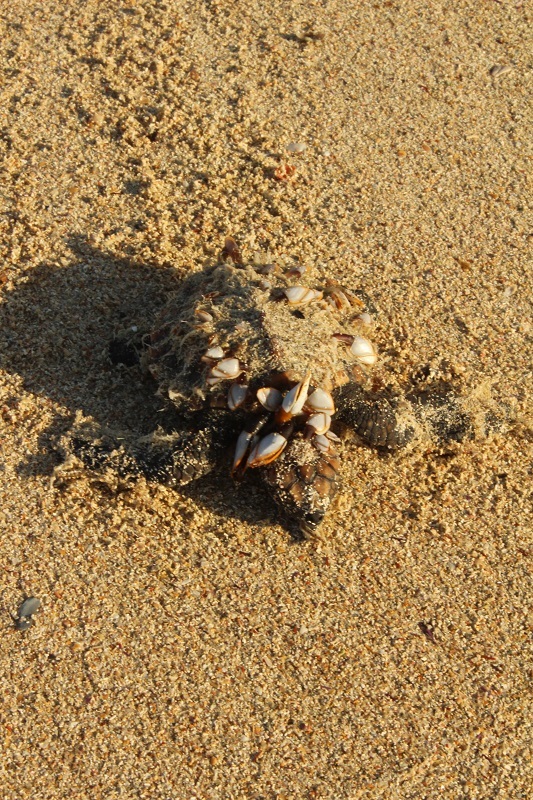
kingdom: Animalia
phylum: Chordata
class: Testudines
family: Cheloniidae
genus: Caretta
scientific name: Caretta caretta
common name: Loggerhead sea turtle
